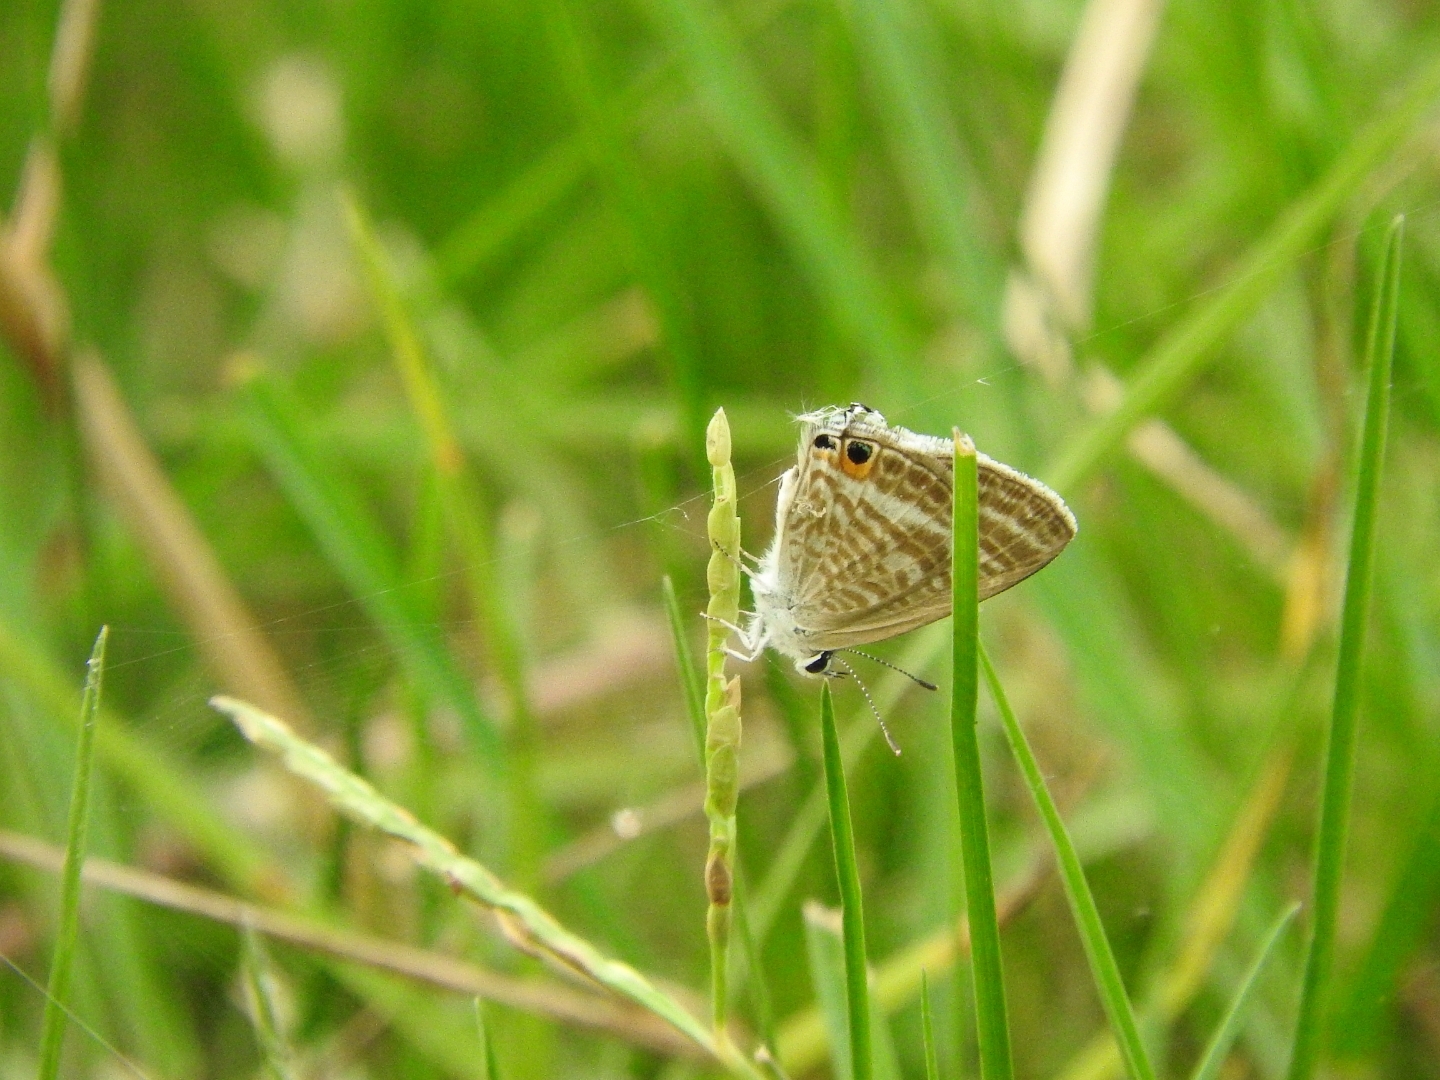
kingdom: Animalia
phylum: Arthropoda
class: Insecta
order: Lepidoptera
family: Lycaenidae
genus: Lampides
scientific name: Lampides boeticus
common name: Long-tailed blue
